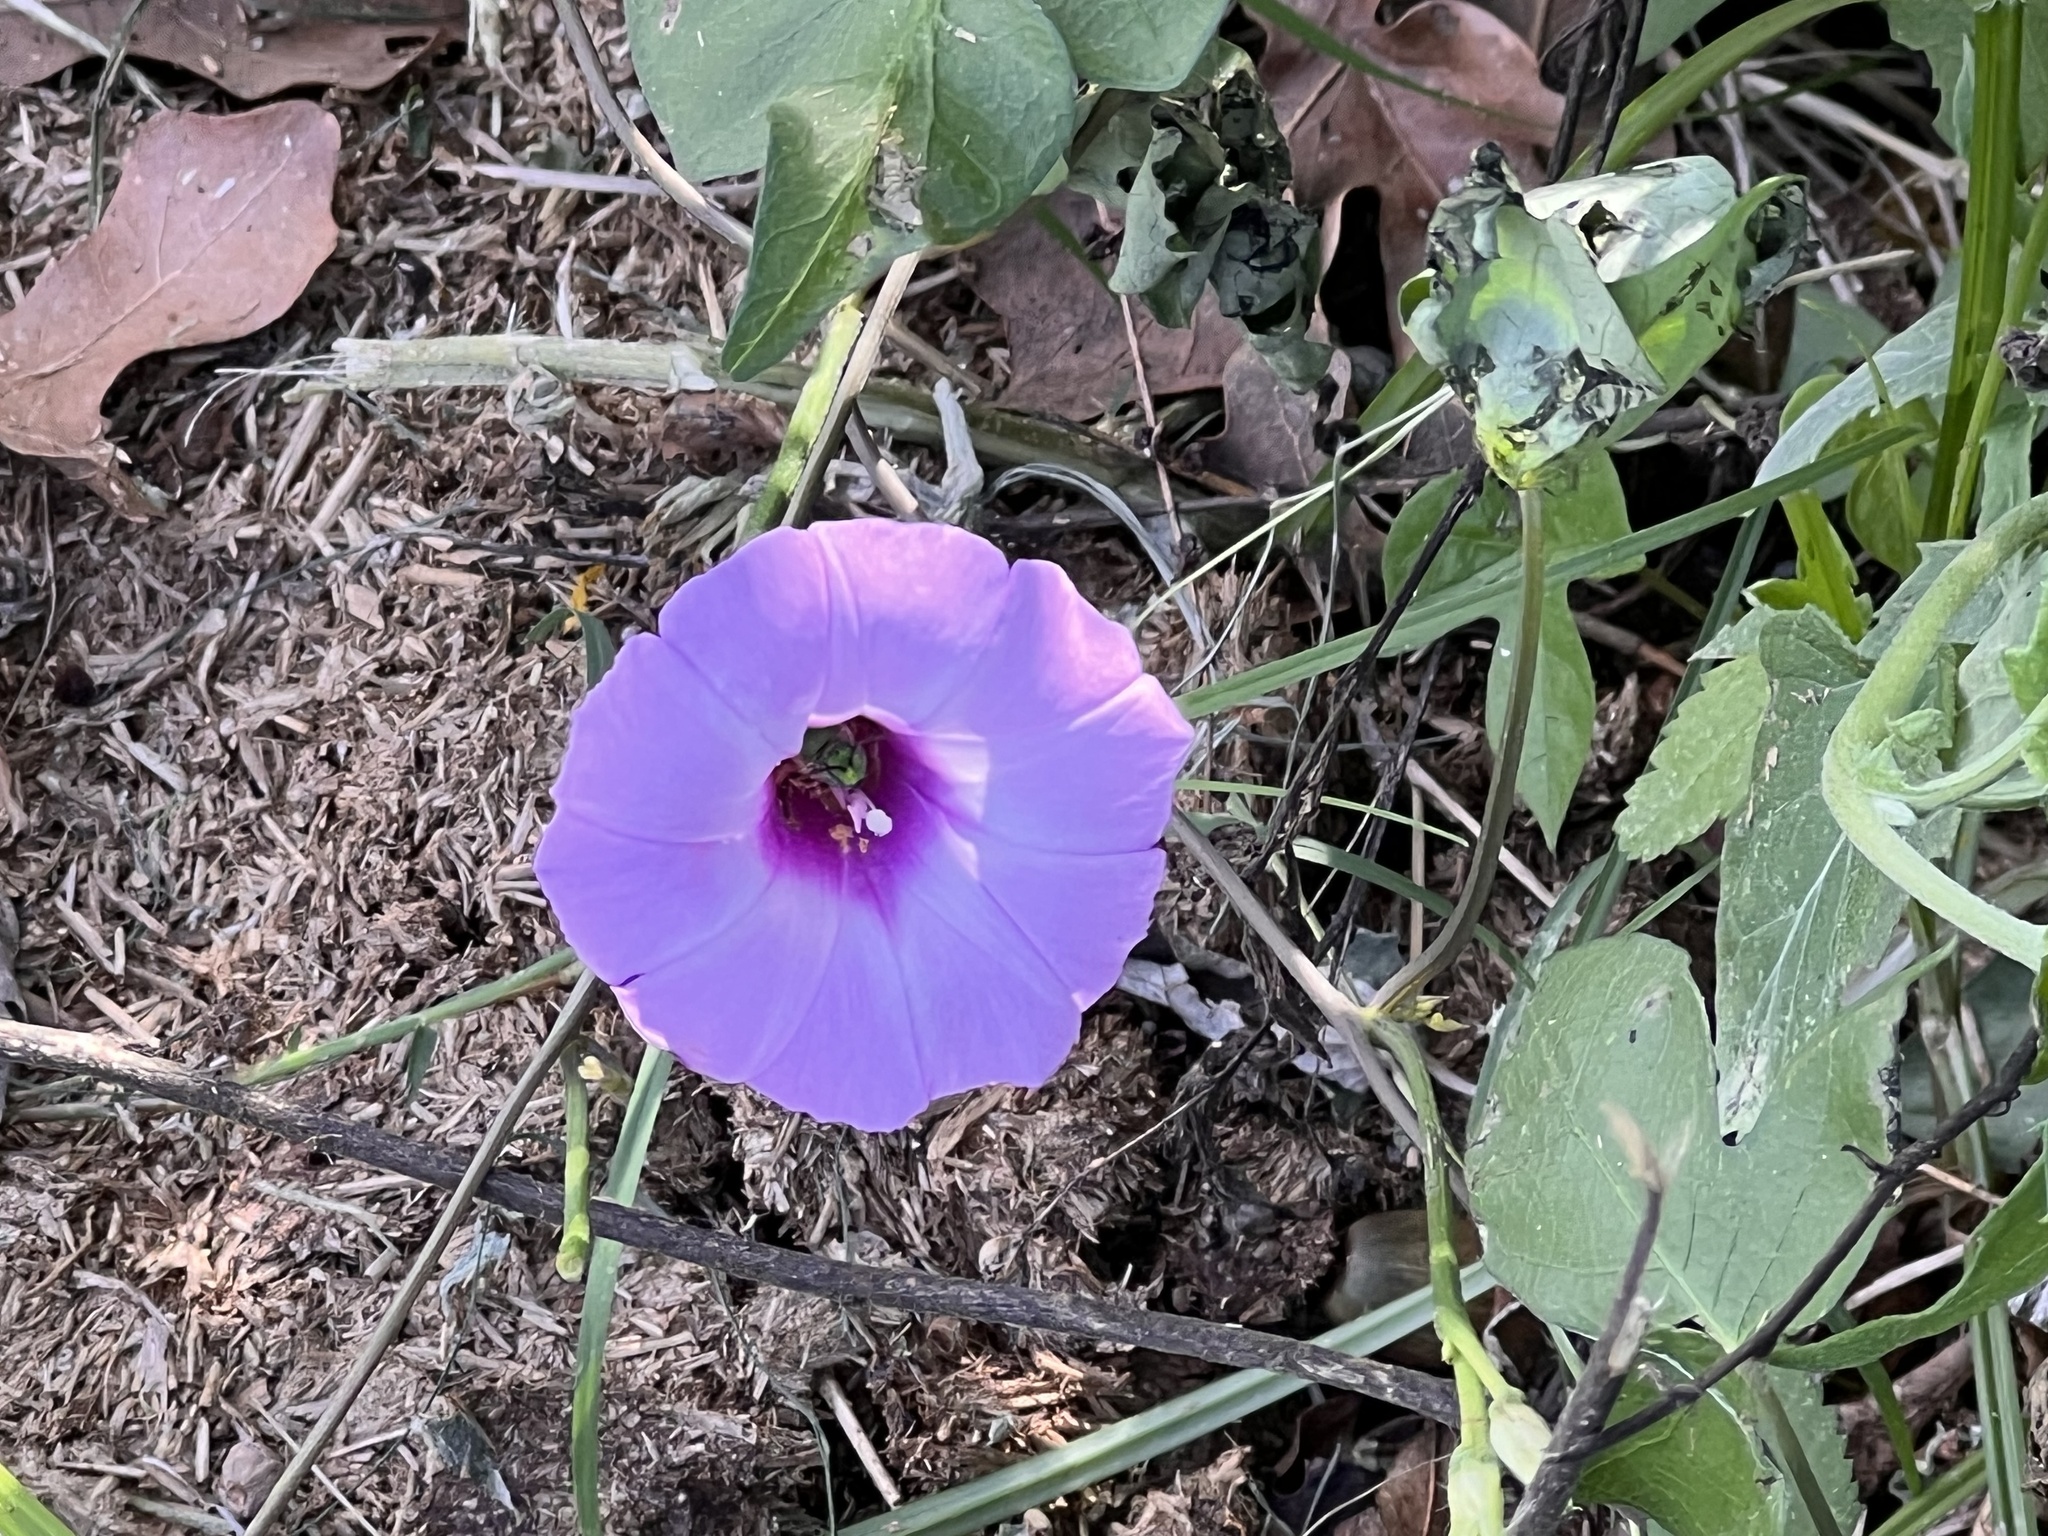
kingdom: Plantae
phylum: Tracheophyta
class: Magnoliopsida
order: Solanales
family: Convolvulaceae
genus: Ipomoea
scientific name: Ipomoea cordatotriloba
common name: Cotton morning glory
